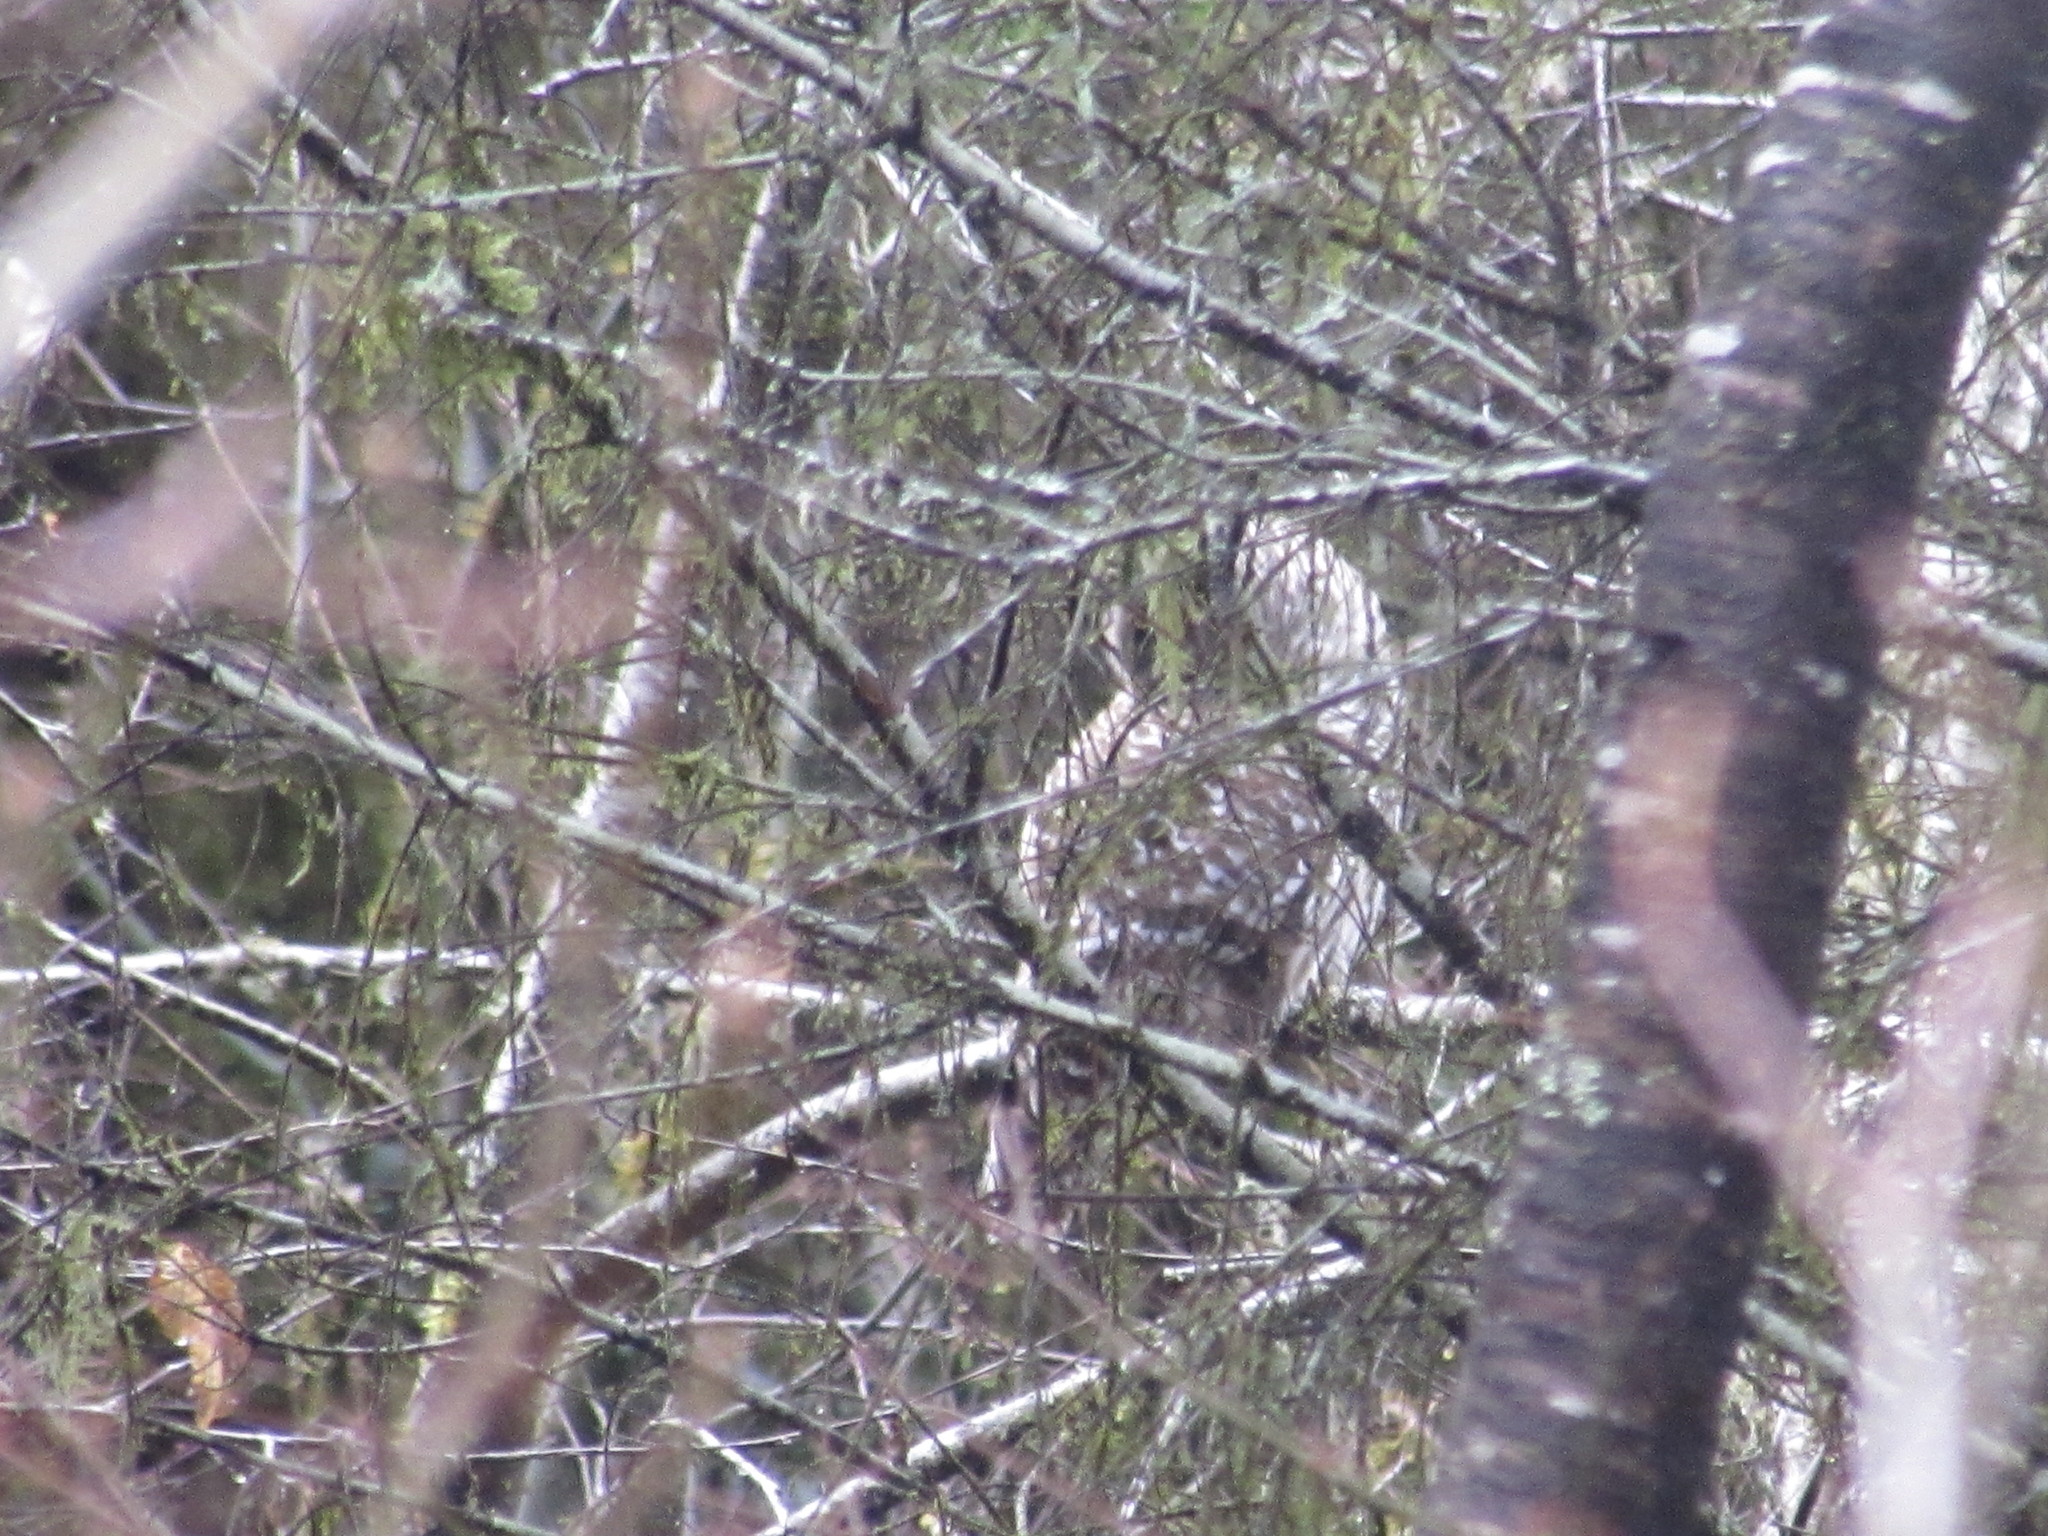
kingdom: Animalia
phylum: Chordata
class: Aves
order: Strigiformes
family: Strigidae
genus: Strix
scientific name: Strix varia
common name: Barred owl
